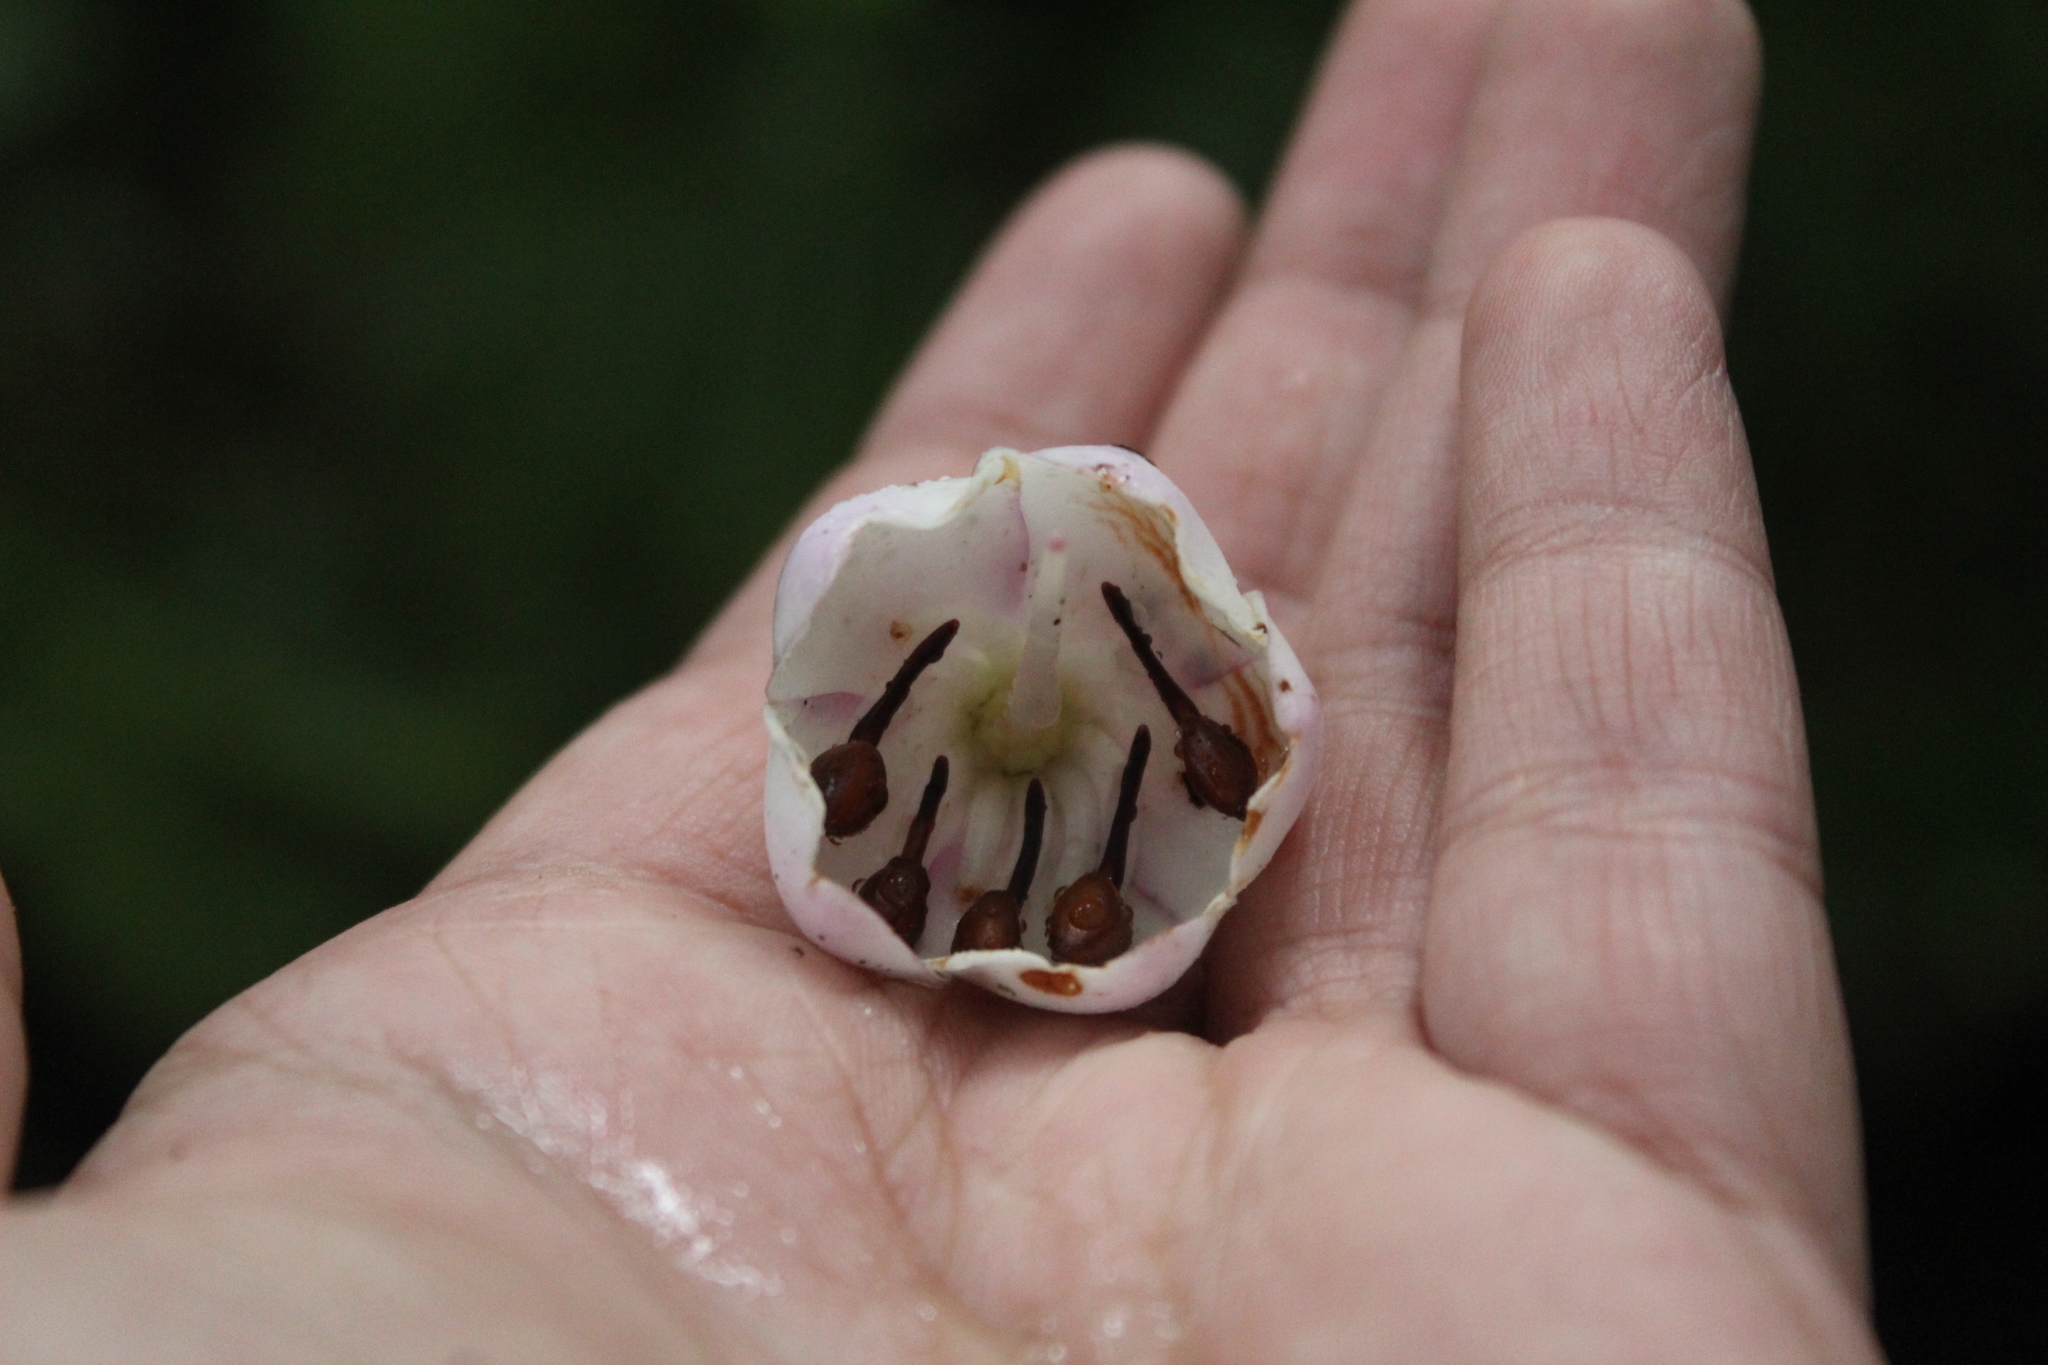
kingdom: Plantae
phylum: Tracheophyta
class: Magnoliopsida
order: Myrtales
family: Melastomataceae
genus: Axinaea
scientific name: Axinaea macrophylla
